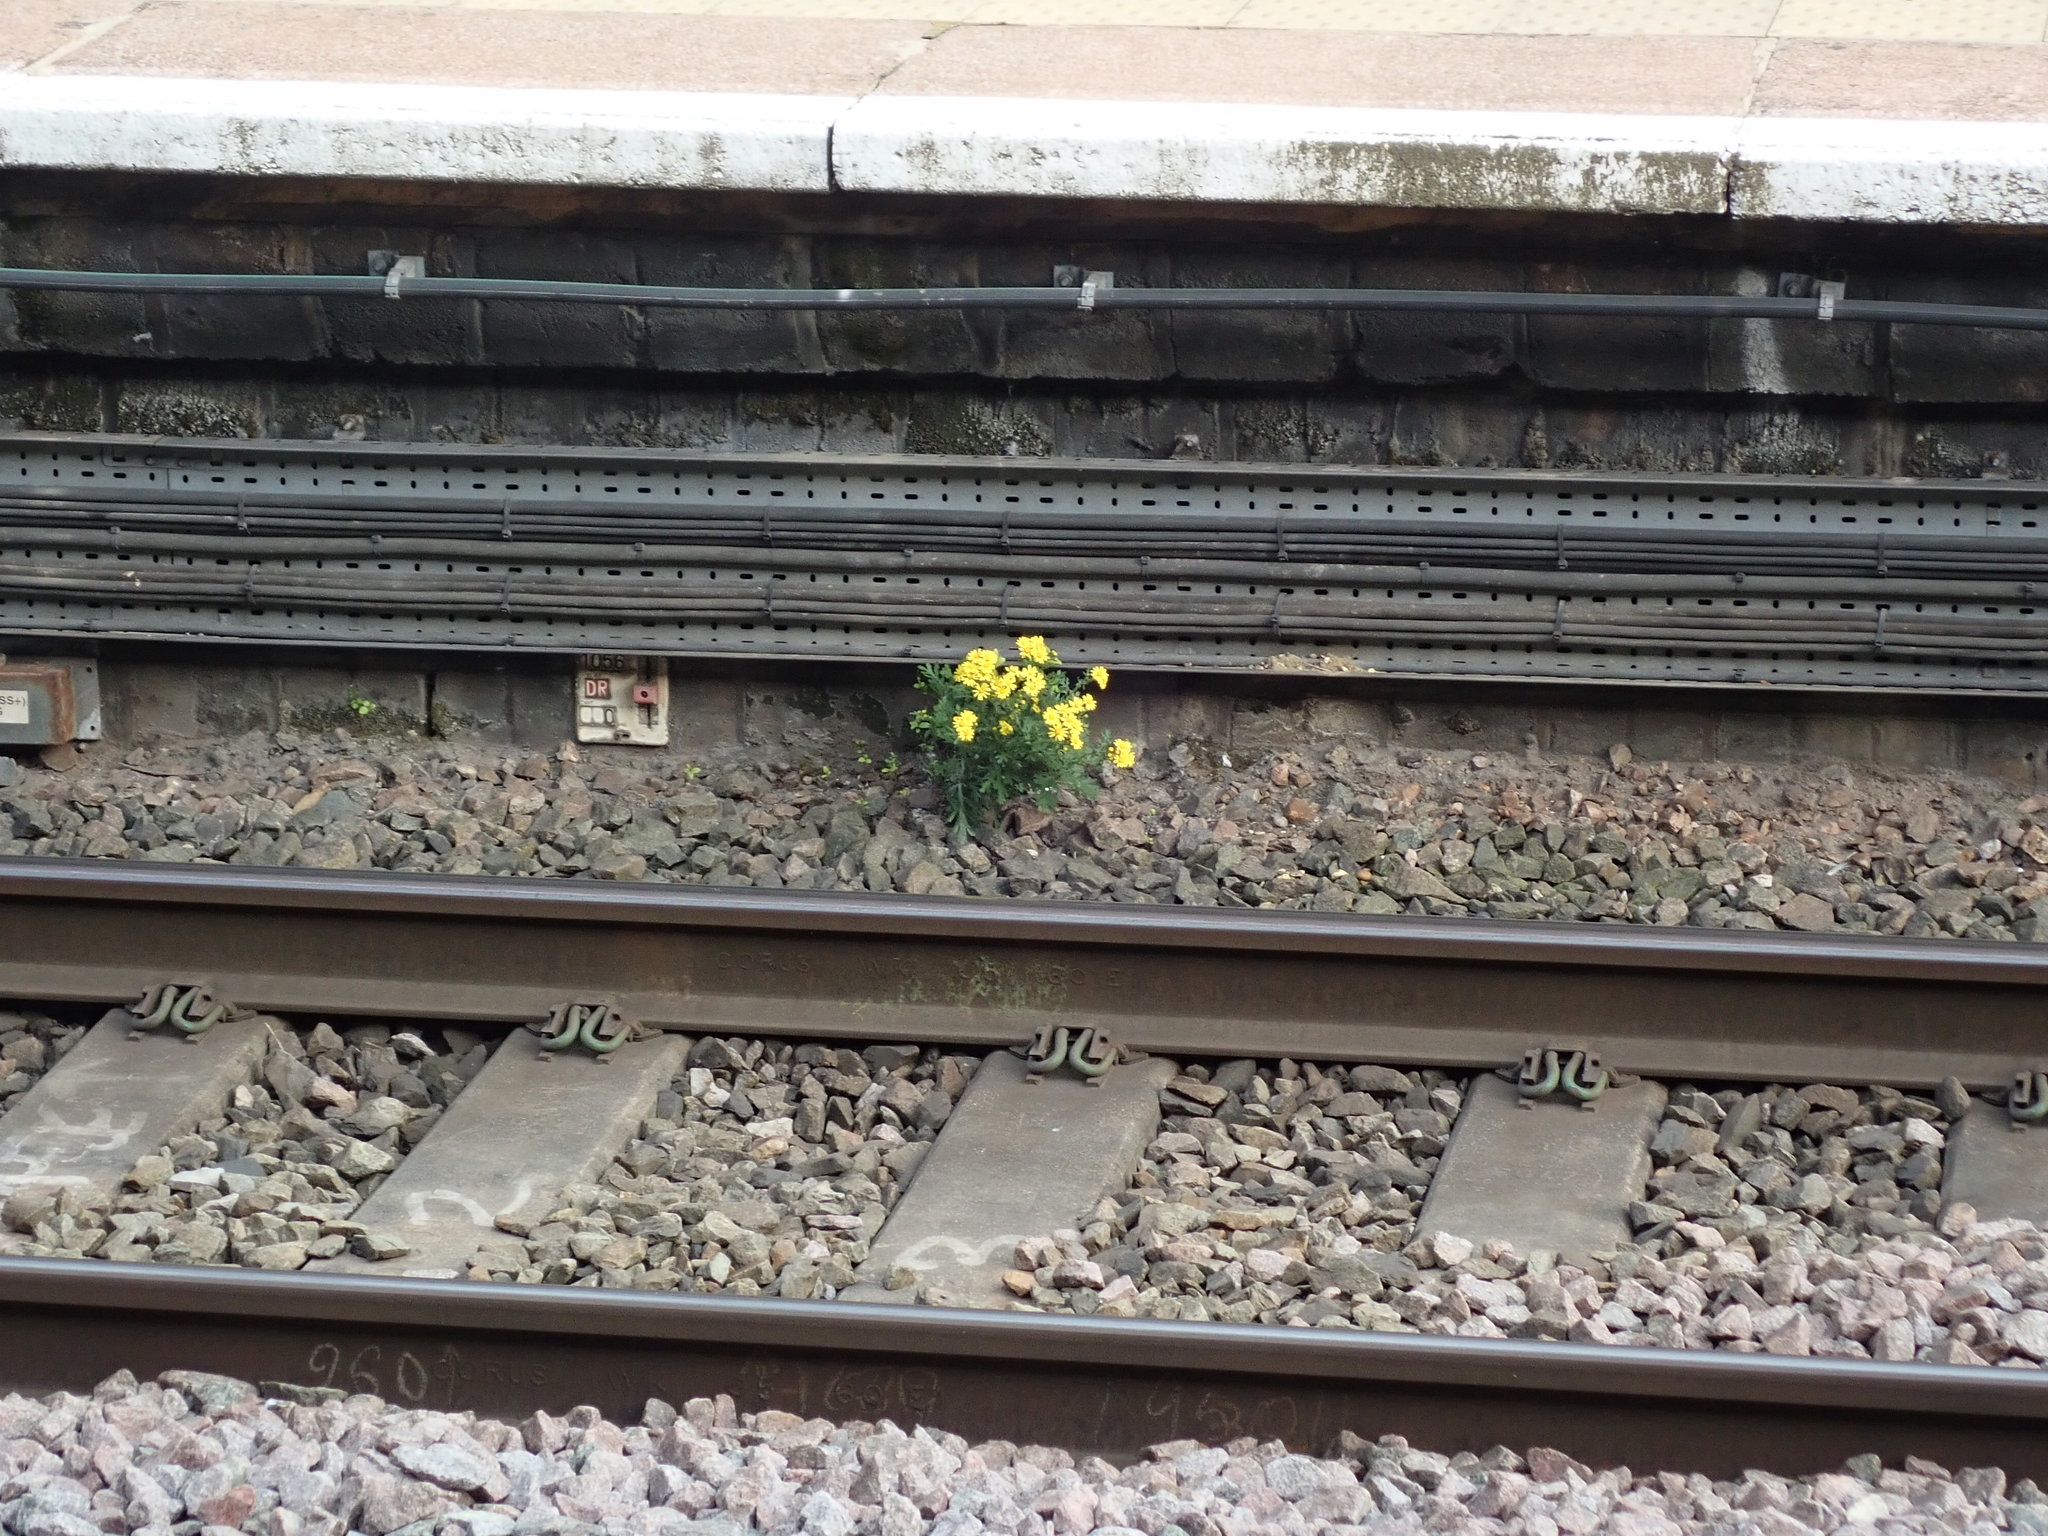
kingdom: Plantae
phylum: Tracheophyta
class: Magnoliopsida
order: Asterales
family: Asteraceae
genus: Senecio
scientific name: Senecio squalidus
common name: Oxford ragwort
